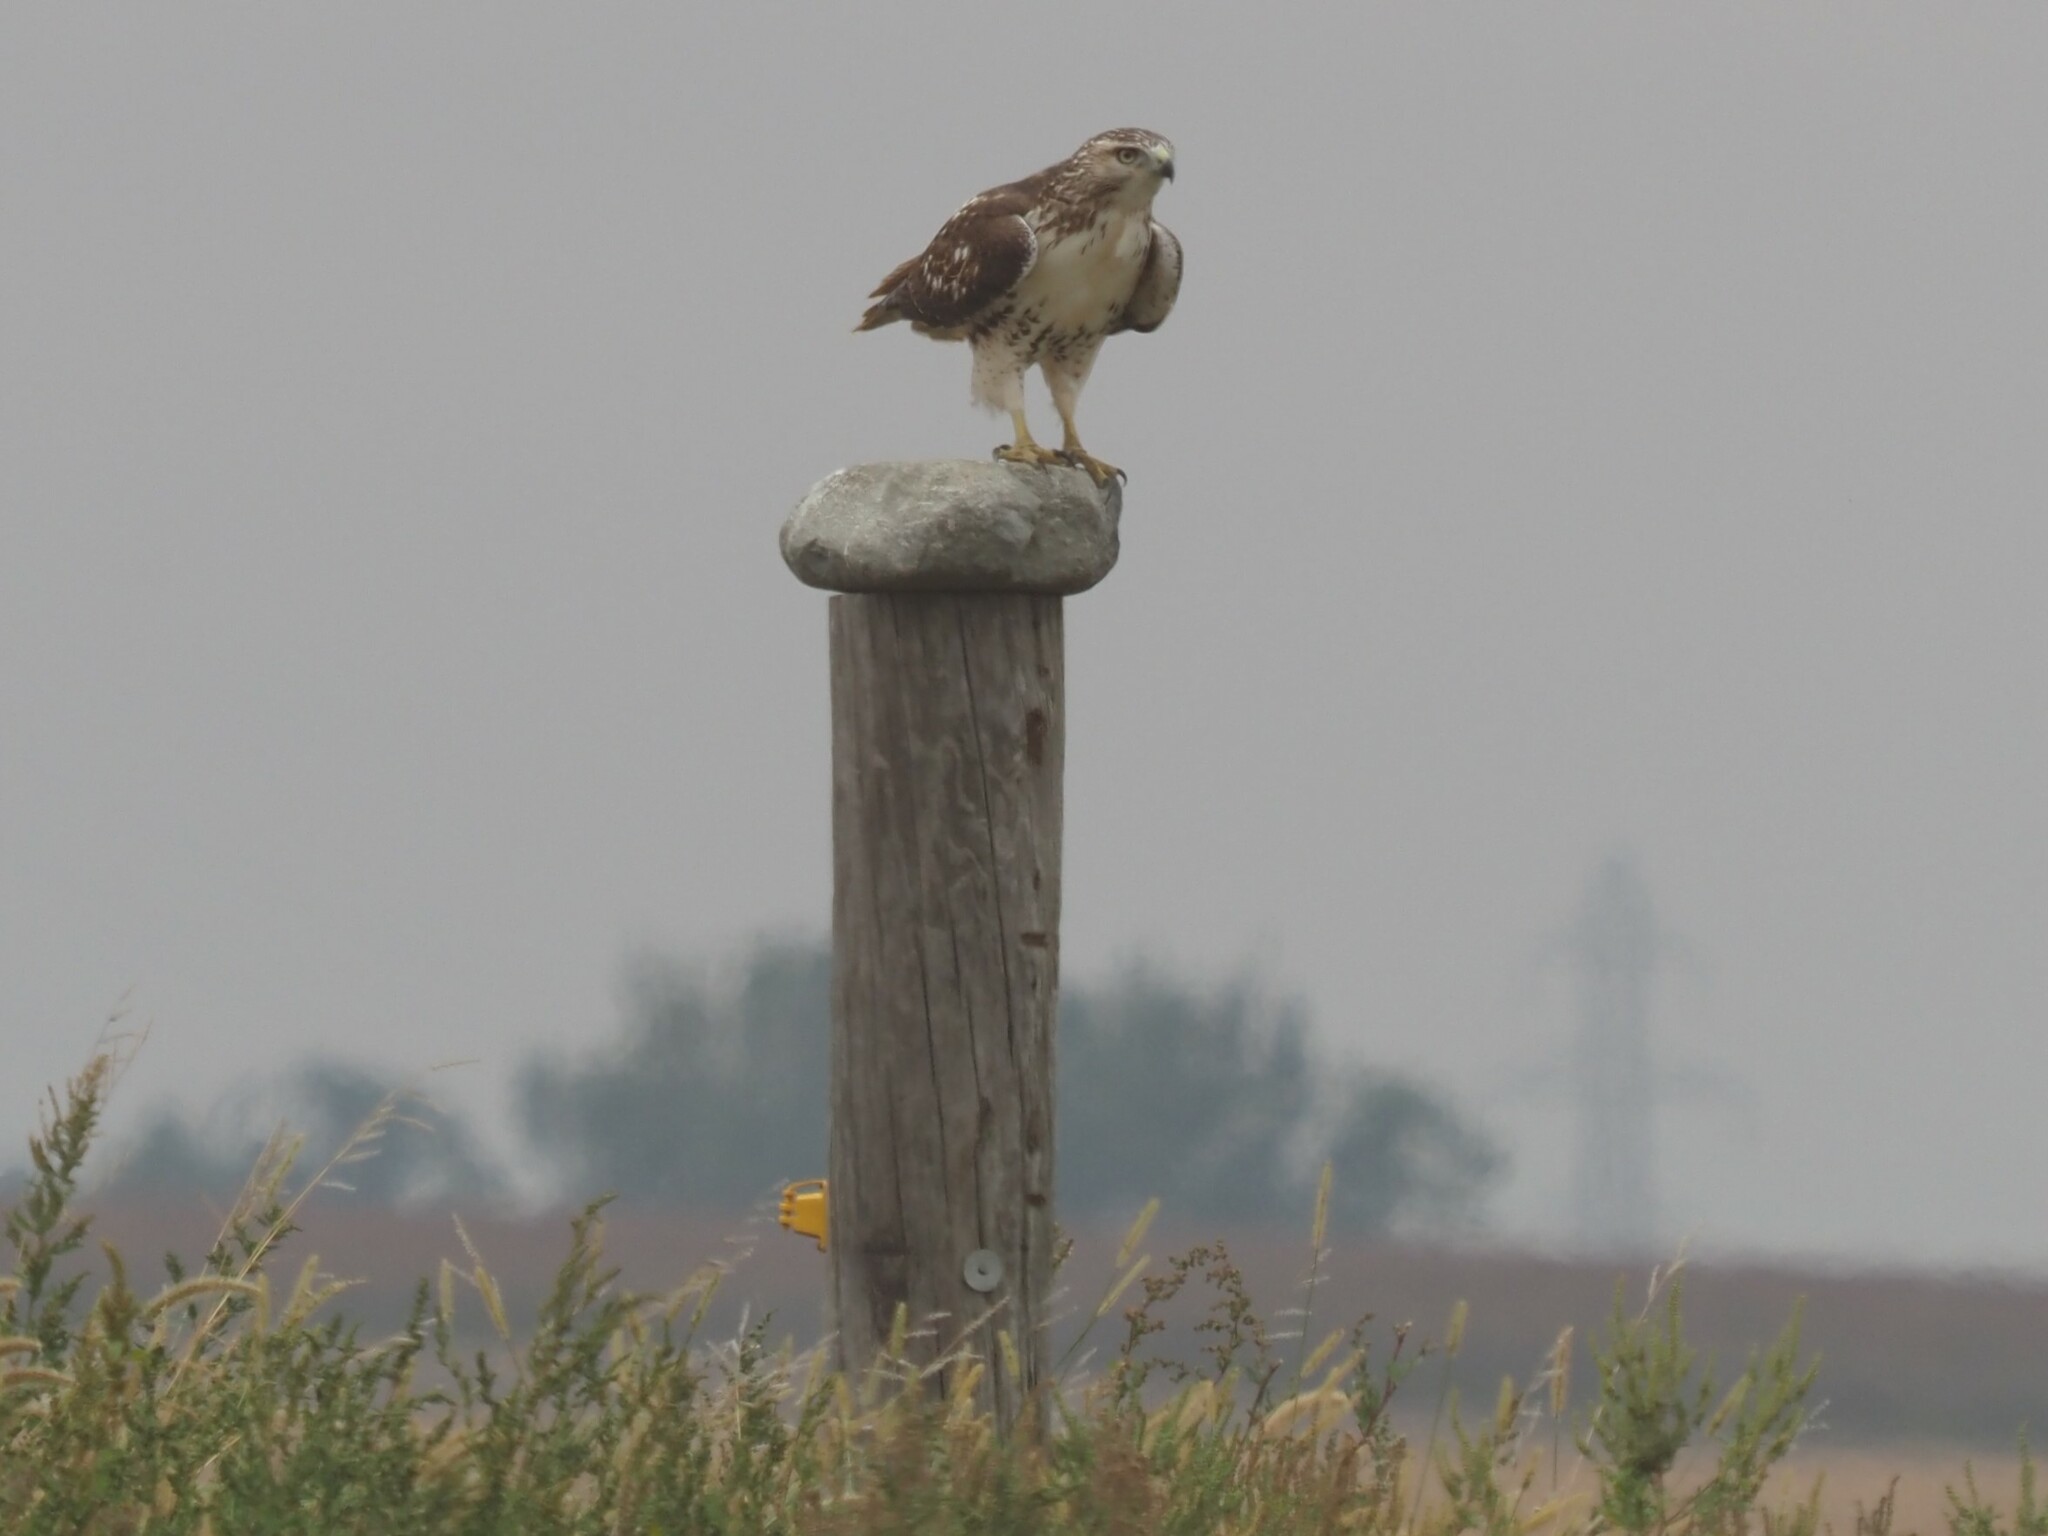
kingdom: Animalia
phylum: Chordata
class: Aves
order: Accipitriformes
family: Accipitridae
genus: Buteo
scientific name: Buteo jamaicensis
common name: Red-tailed hawk
